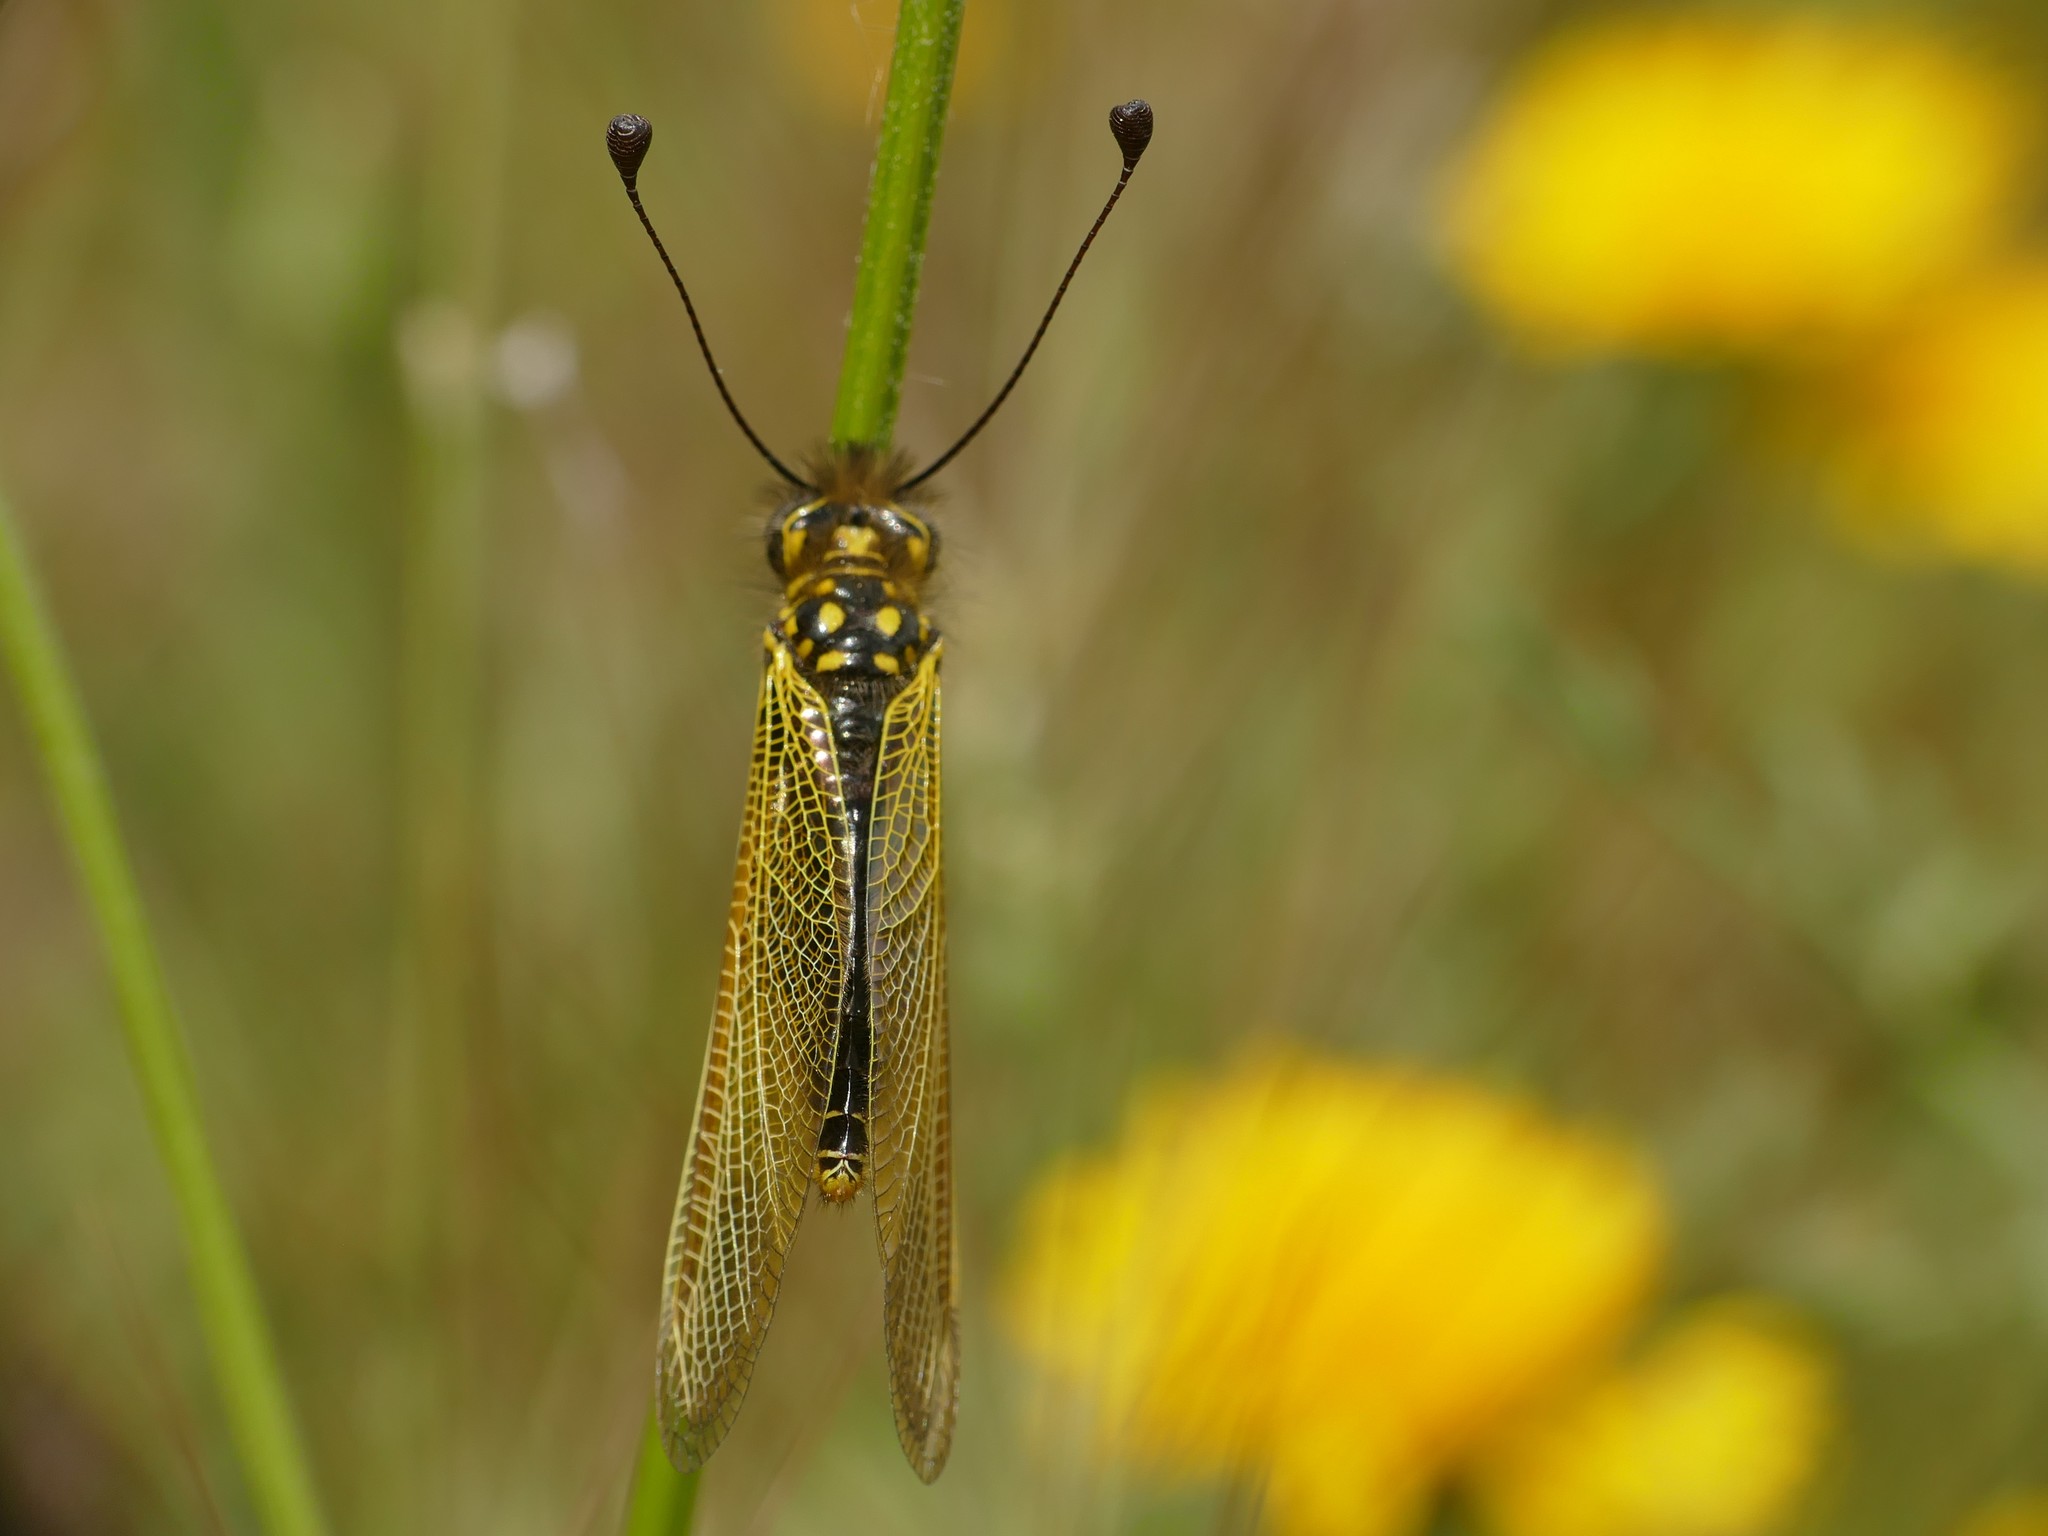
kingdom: Animalia
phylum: Arthropoda
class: Insecta
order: Neuroptera
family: Ascalaphidae
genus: Libelloides
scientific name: Libelloides ictericus
